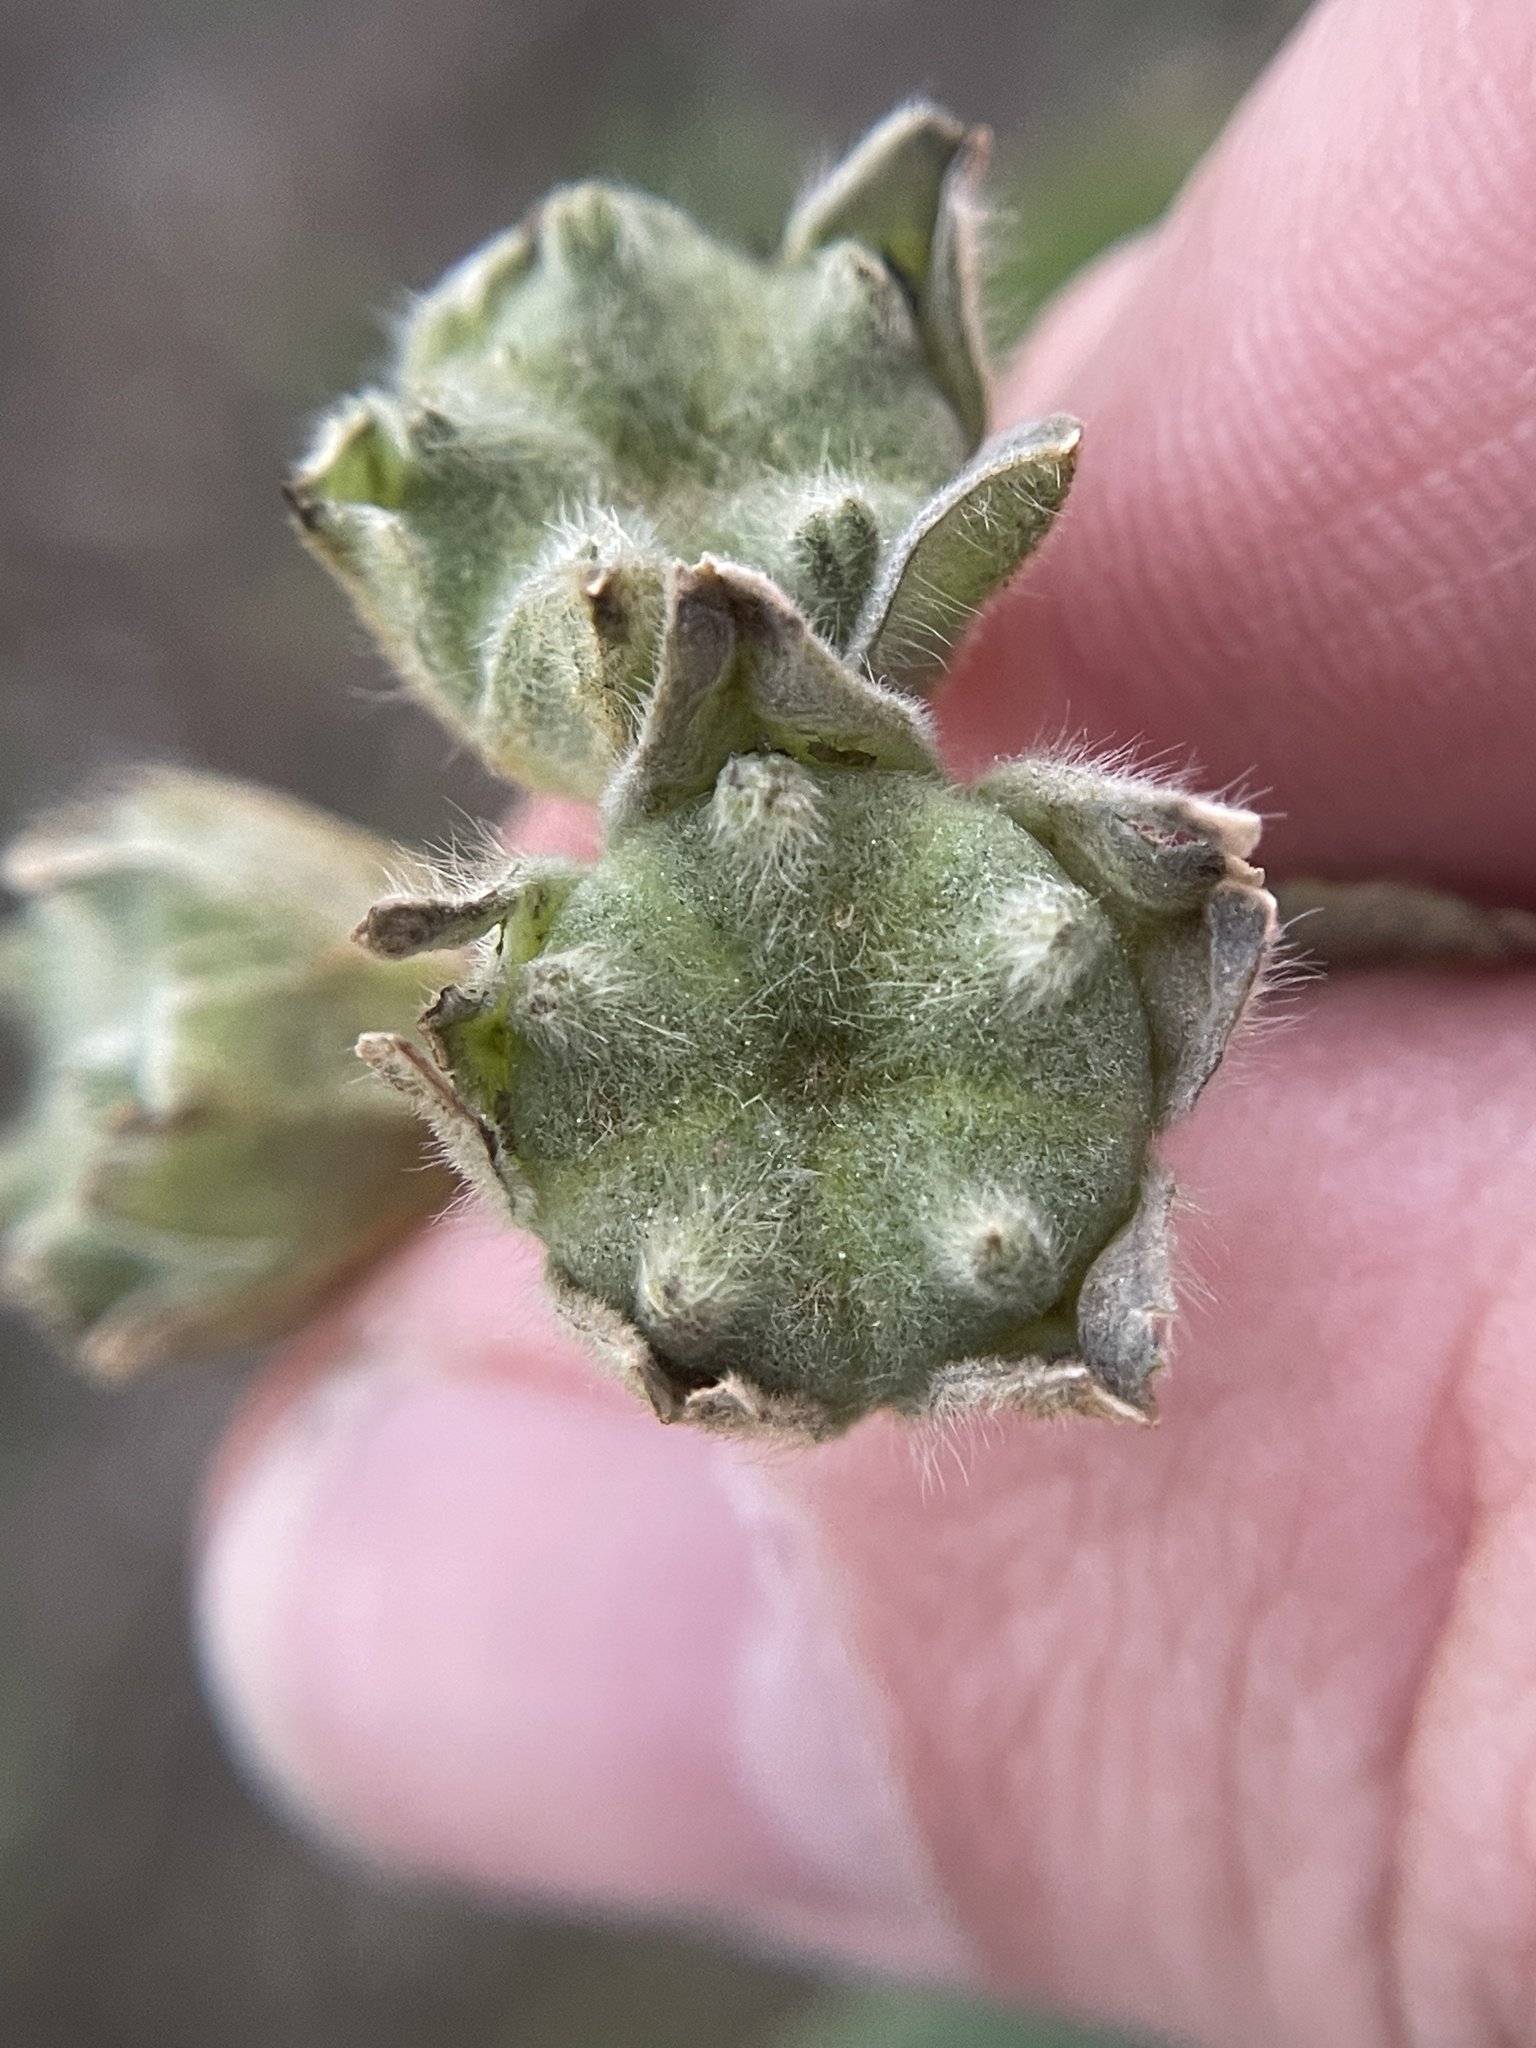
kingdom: Plantae
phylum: Tracheophyta
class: Magnoliopsida
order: Malvales
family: Malvaceae
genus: Allowissadula
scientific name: Allowissadula lozanoi
